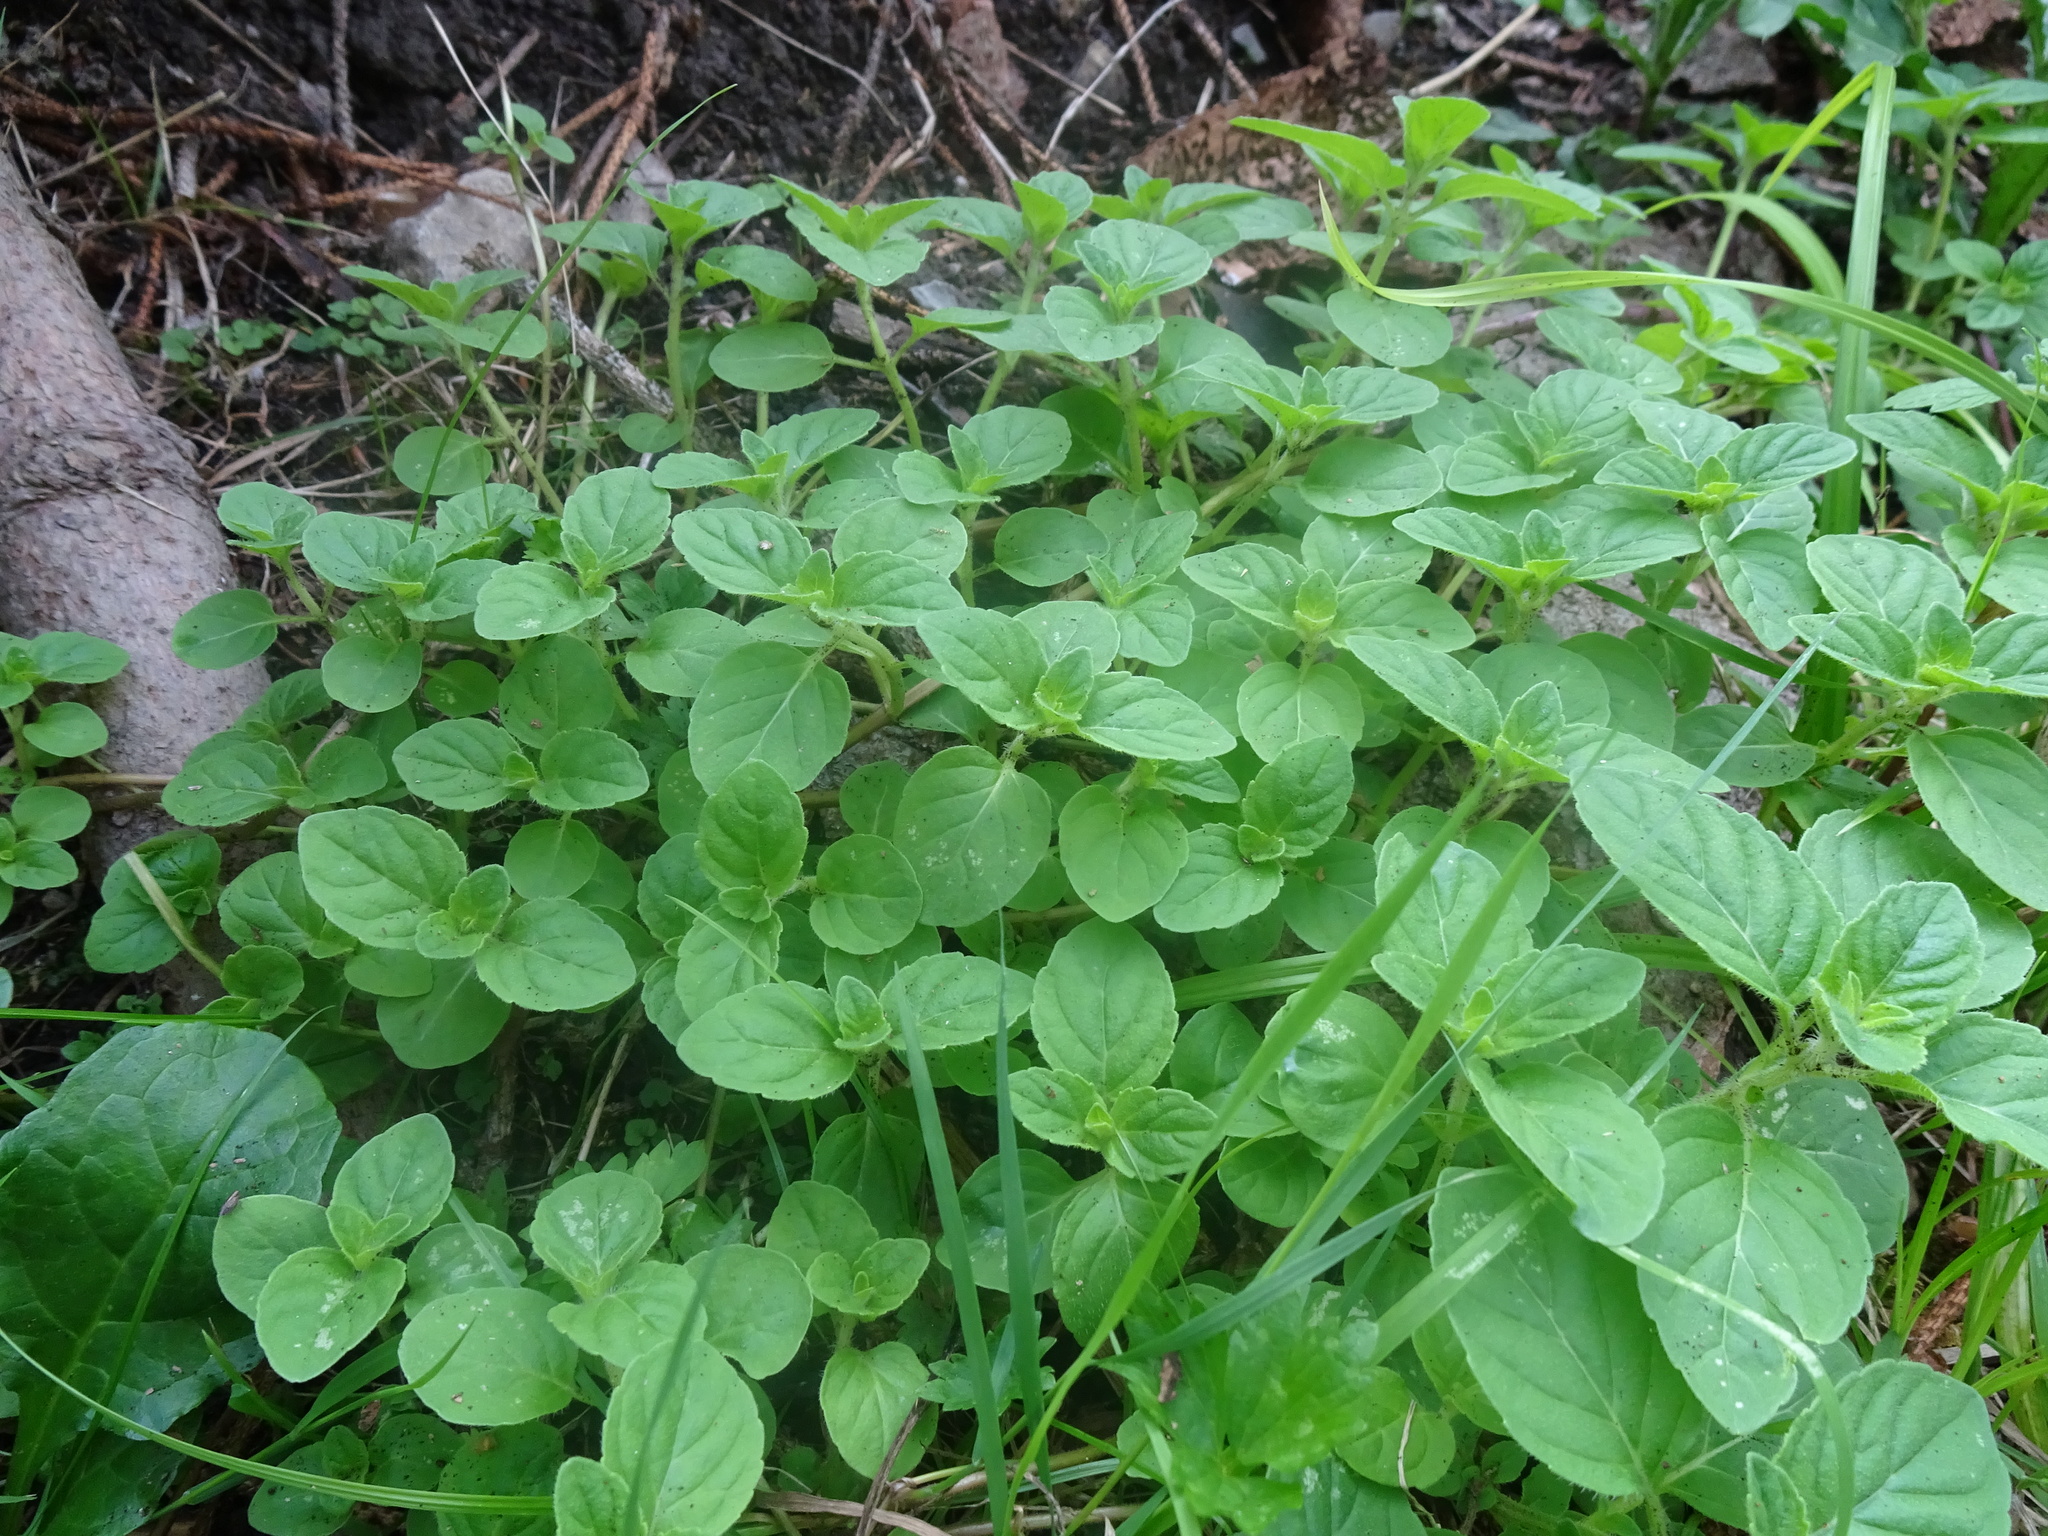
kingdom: Plantae
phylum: Tracheophyta
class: Magnoliopsida
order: Lamiales
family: Lamiaceae
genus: Mentha
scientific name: Mentha arvensis
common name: Corn mint
